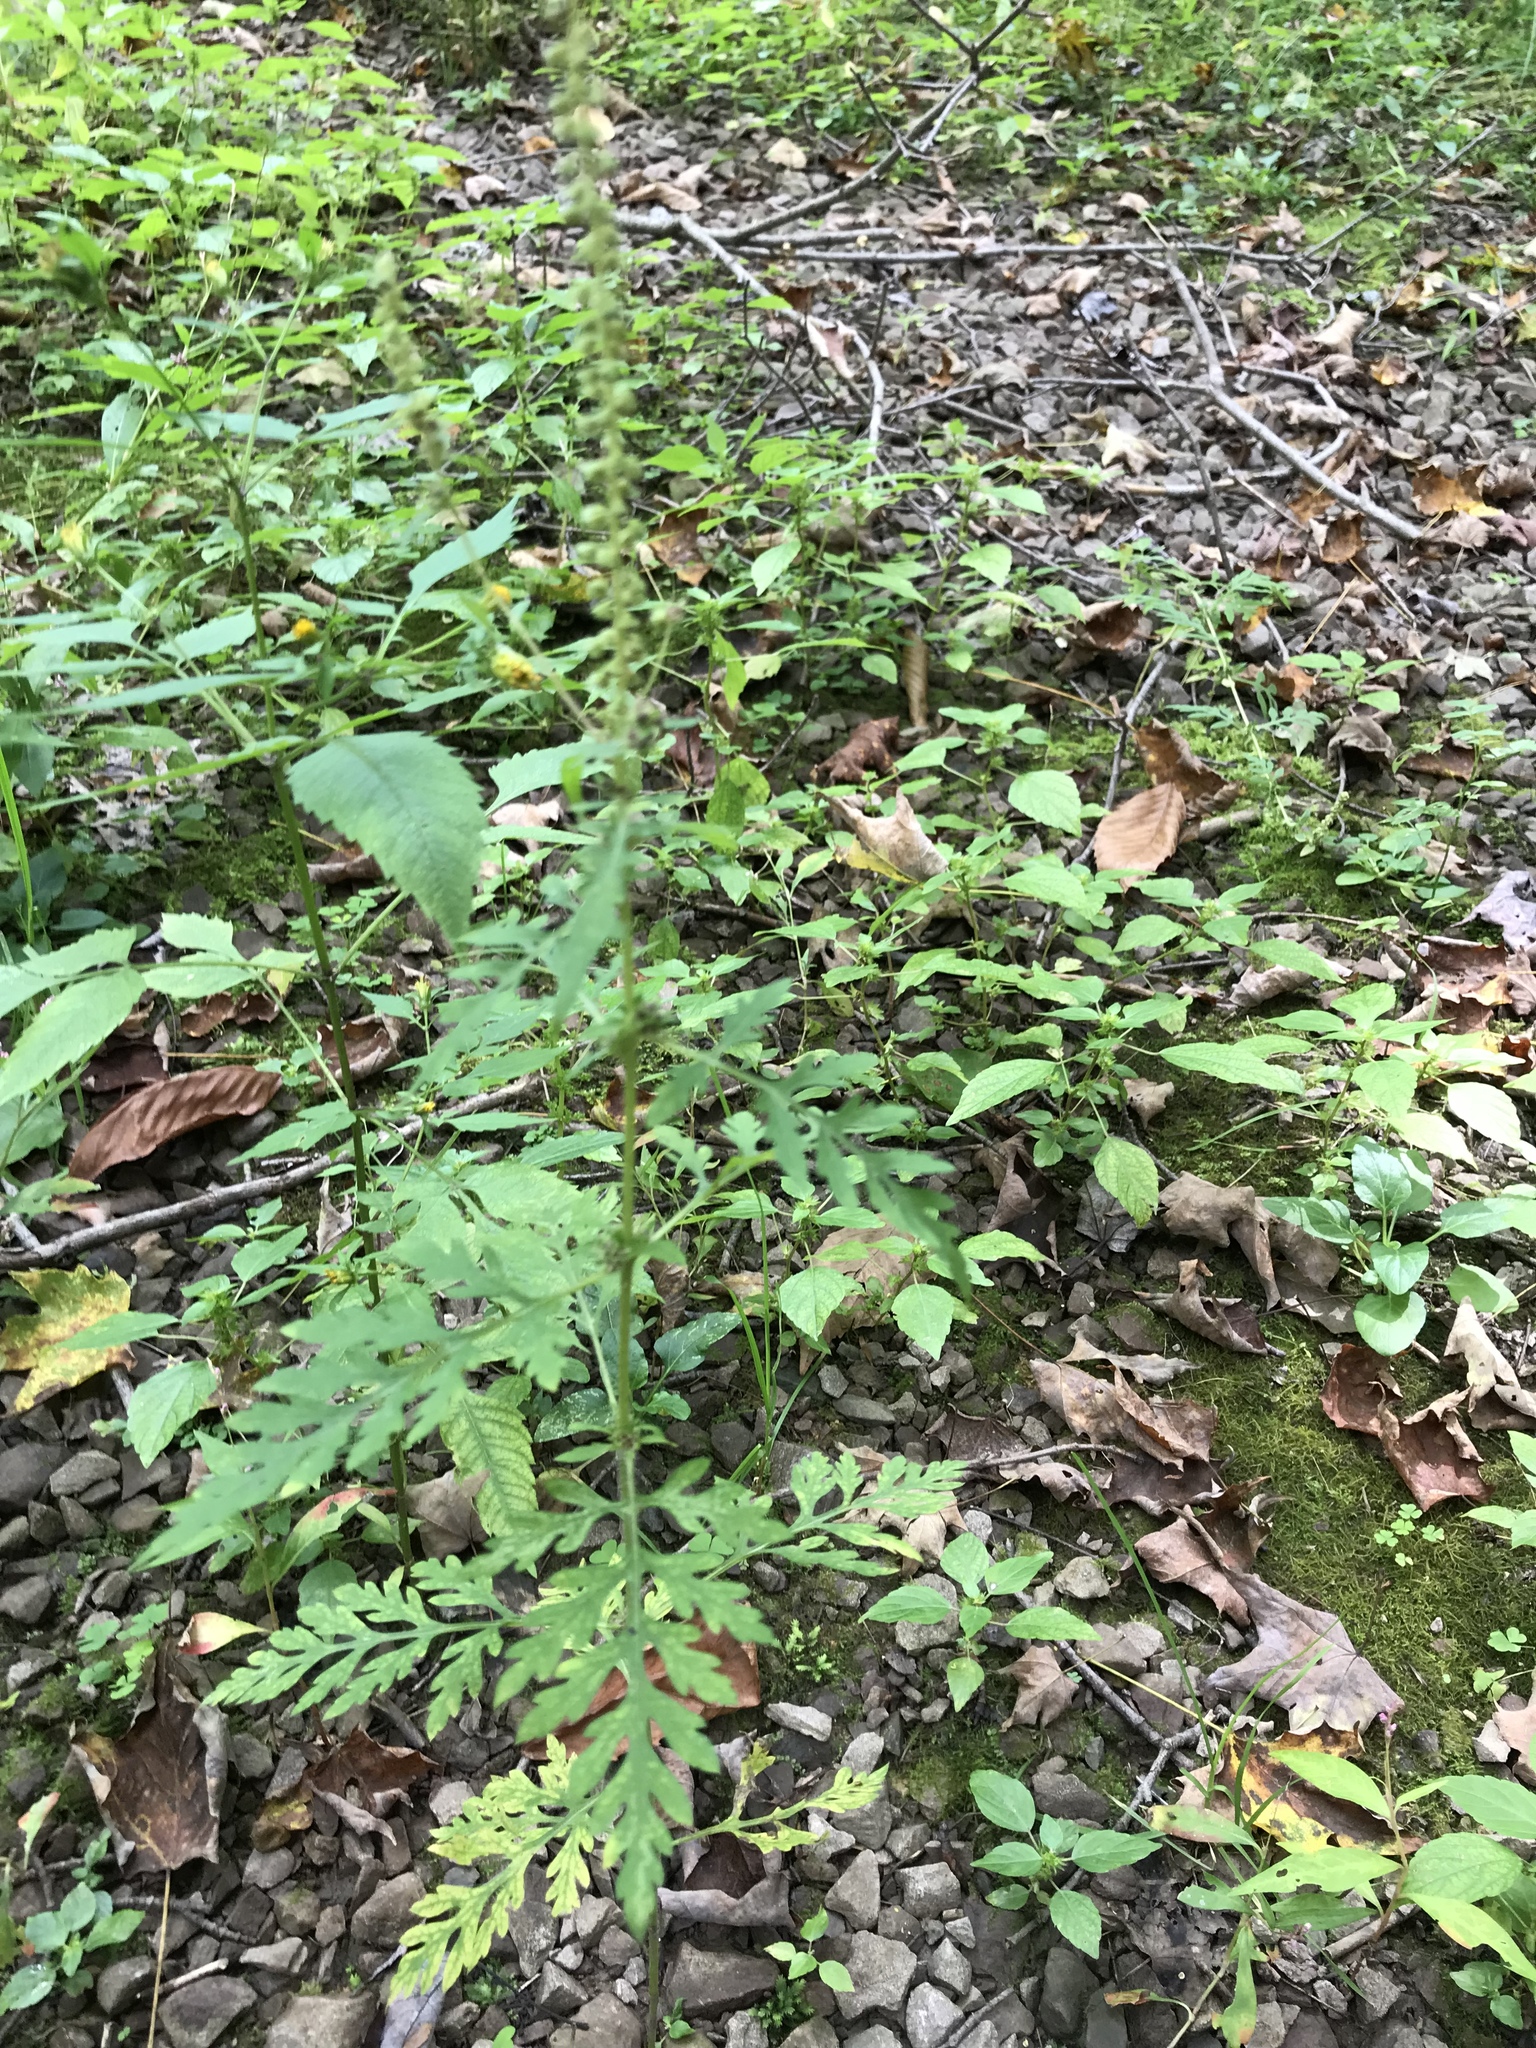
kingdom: Plantae
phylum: Tracheophyta
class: Magnoliopsida
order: Asterales
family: Asteraceae
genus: Ambrosia
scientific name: Ambrosia artemisiifolia
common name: Annual ragweed
